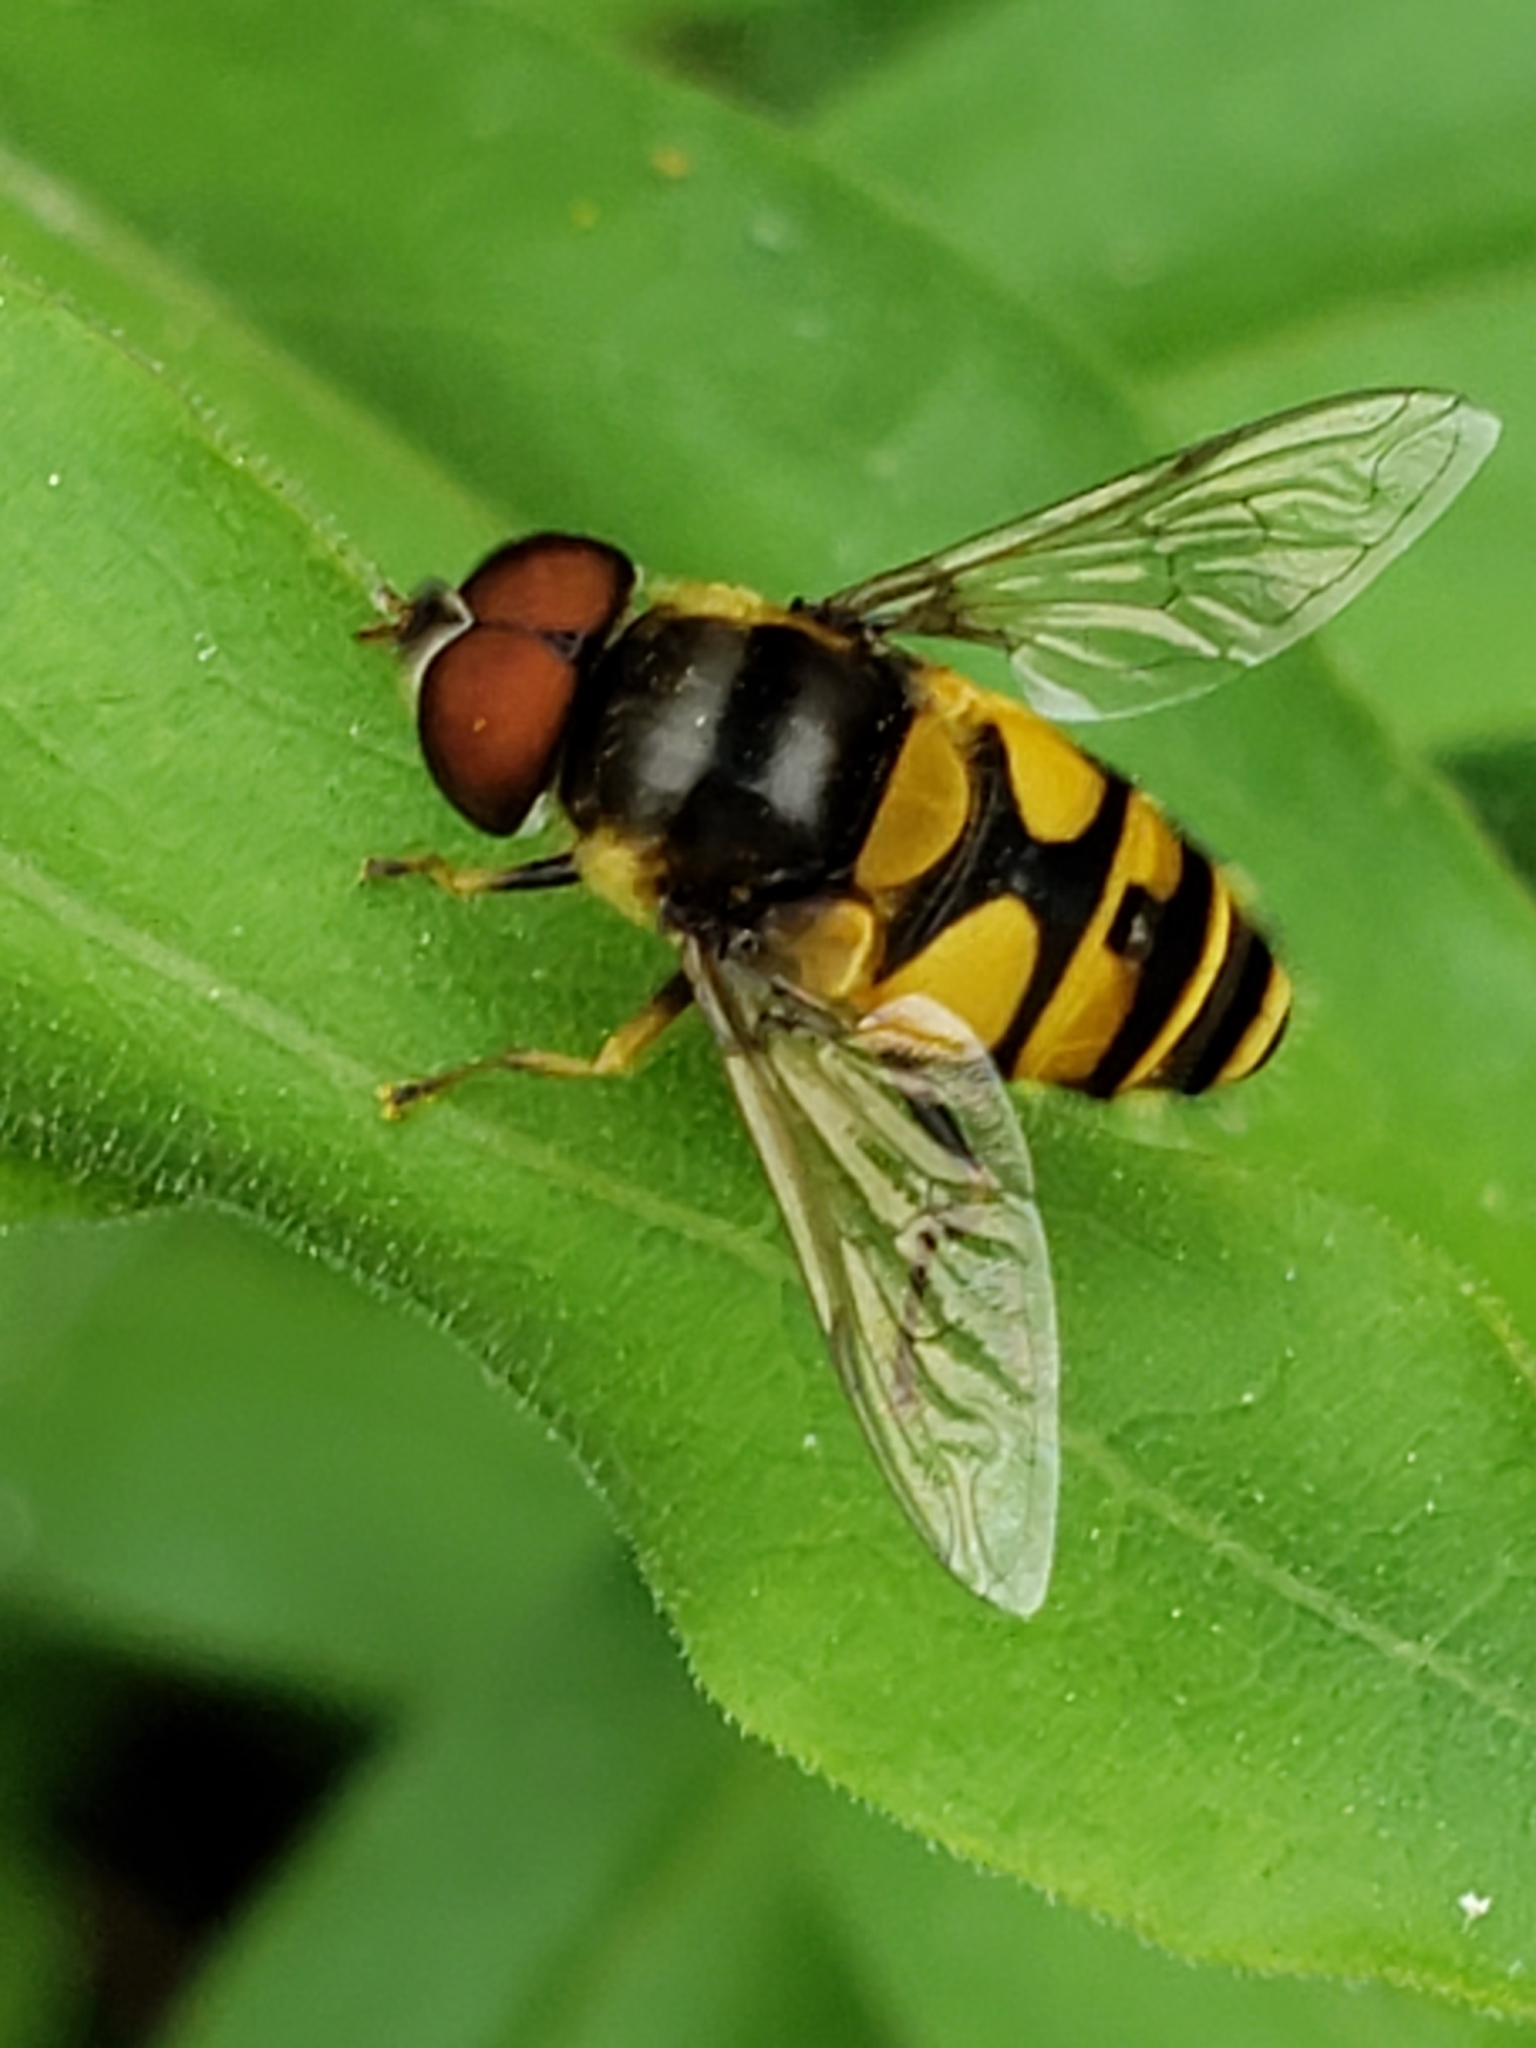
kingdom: Animalia
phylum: Arthropoda
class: Insecta
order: Diptera
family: Syrphidae
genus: Eristalis
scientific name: Eristalis transversa
